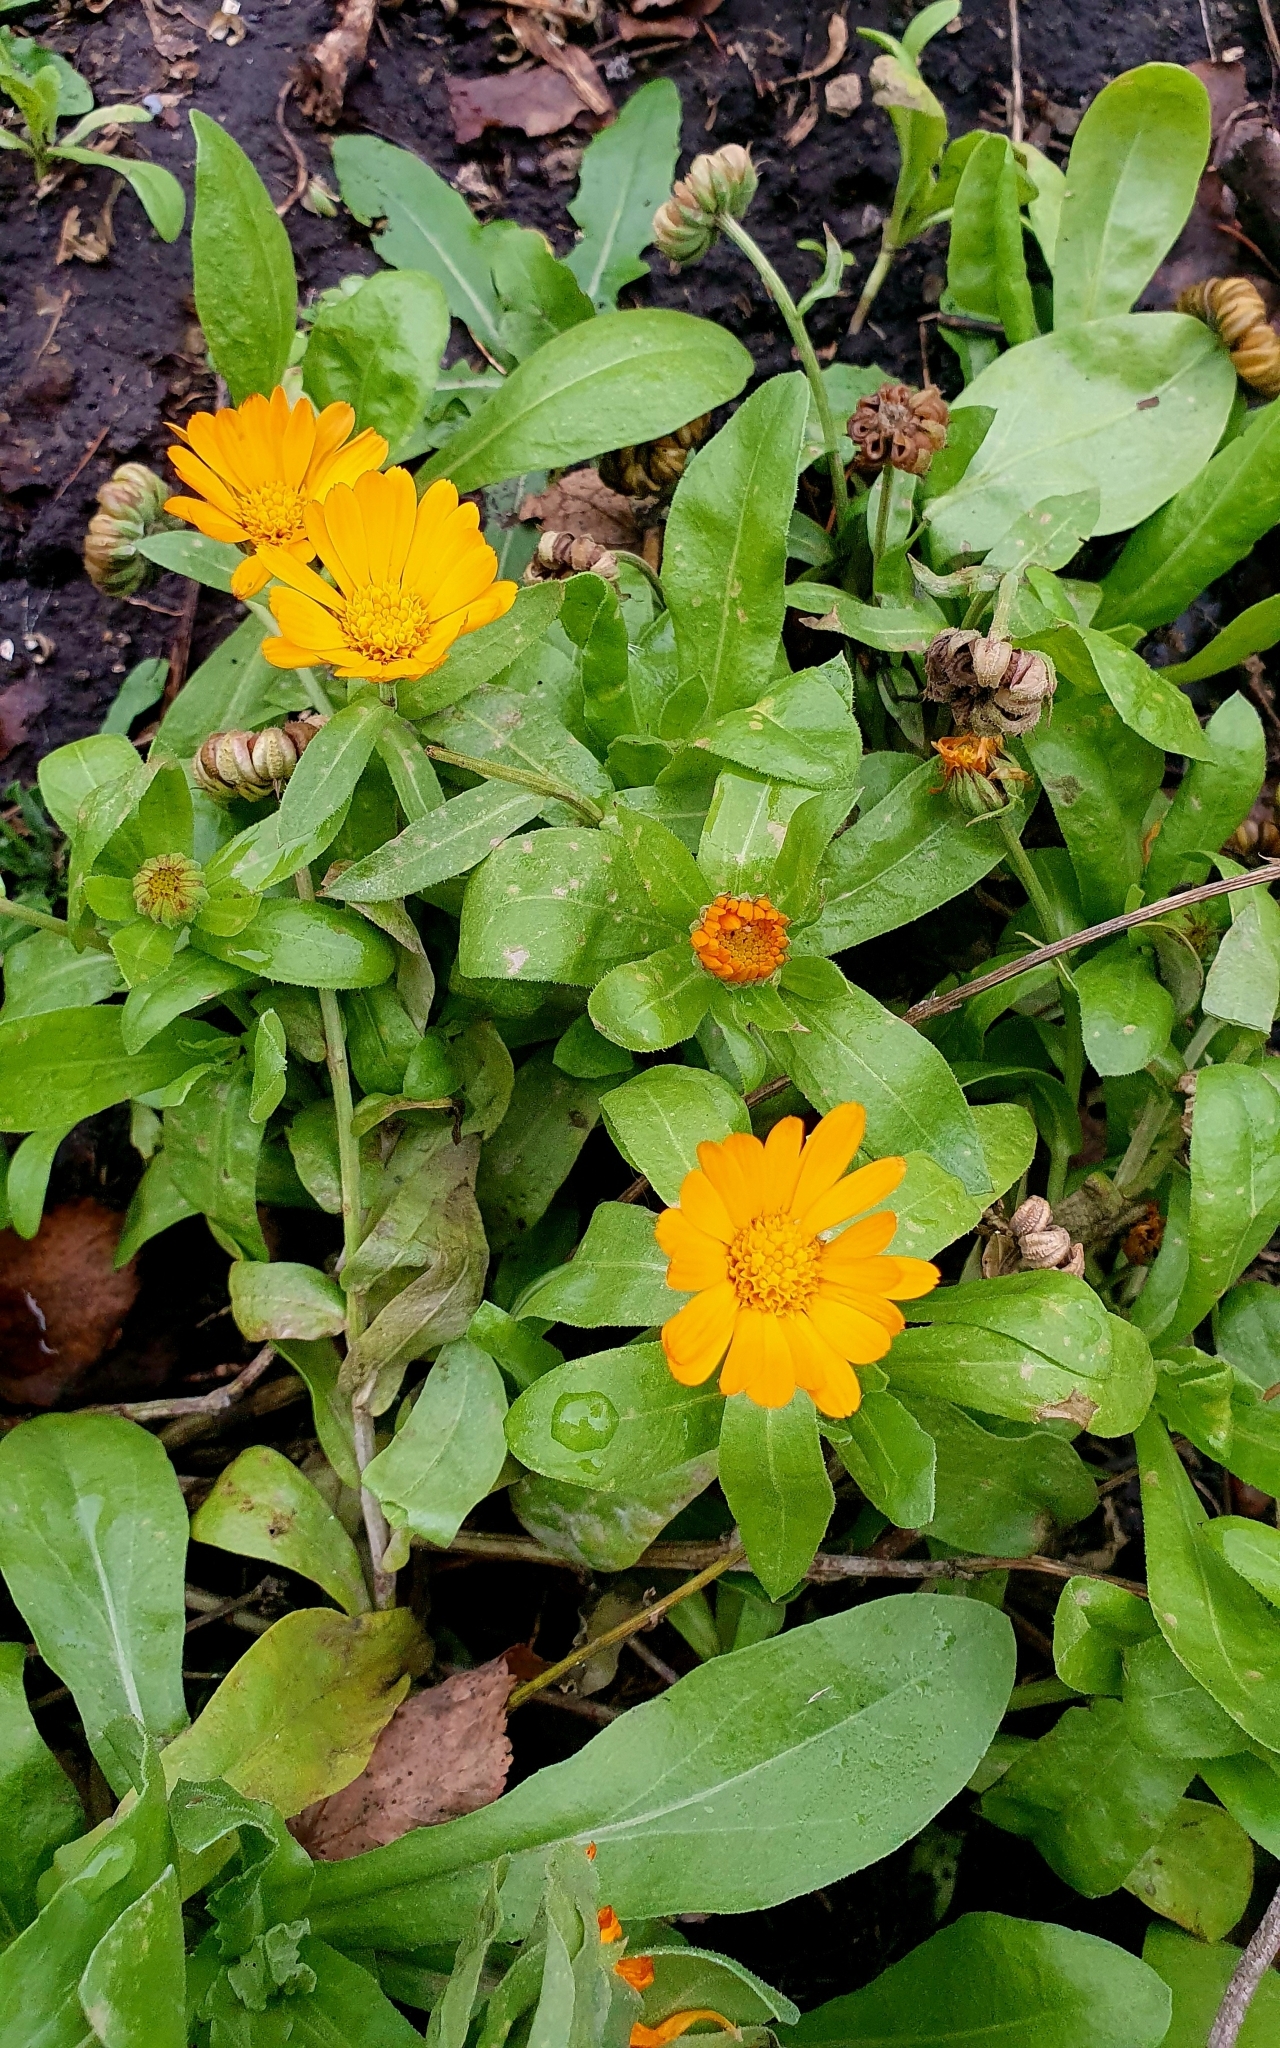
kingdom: Plantae
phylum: Tracheophyta
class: Magnoliopsida
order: Asterales
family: Asteraceae
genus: Calendula
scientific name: Calendula officinalis
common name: Pot marigold
